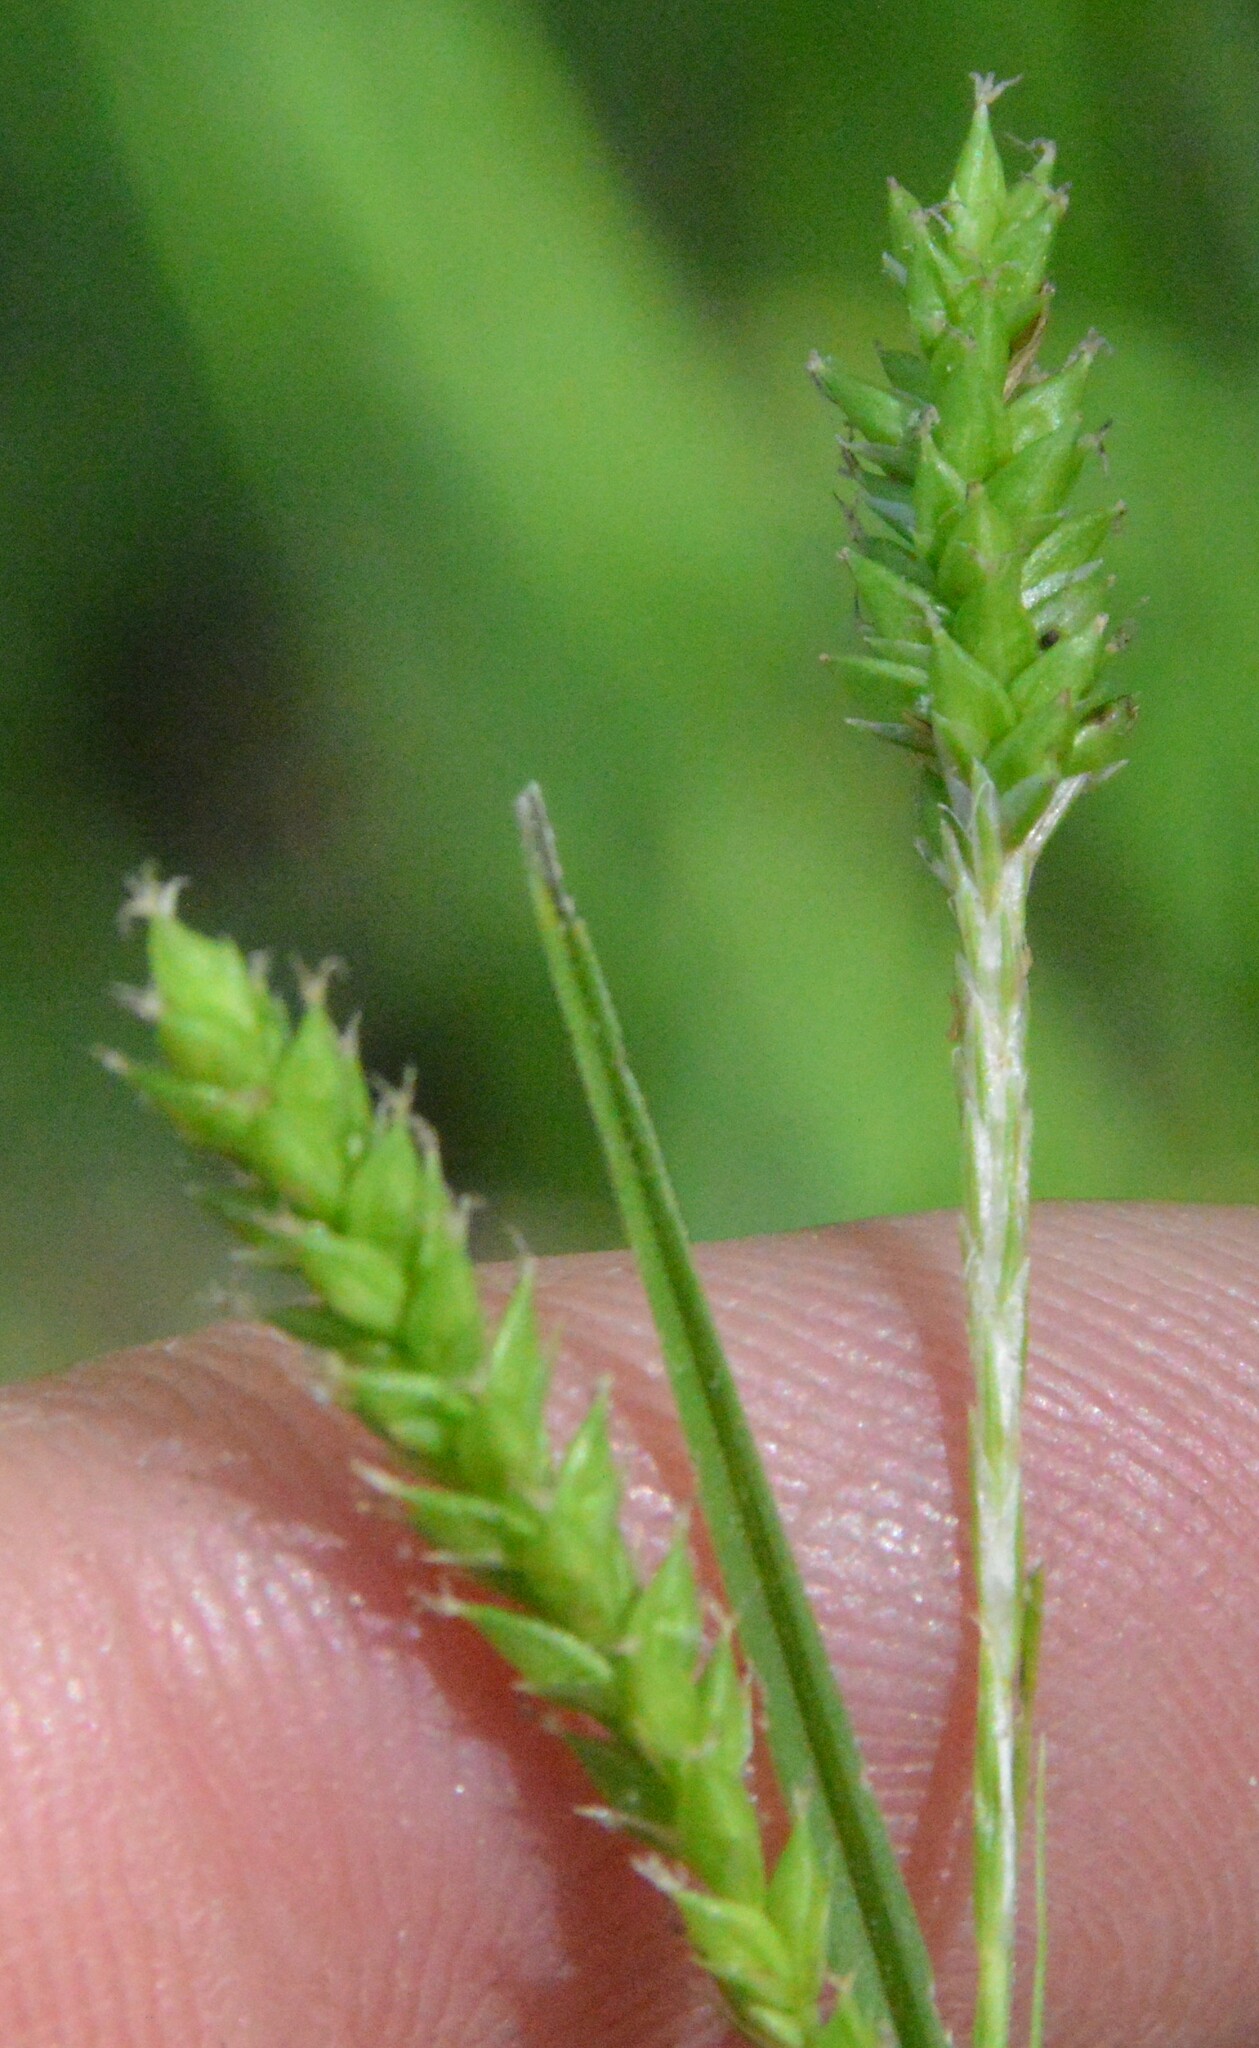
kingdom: Plantae
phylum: Tracheophyta
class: Liliopsida
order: Poales
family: Cyperaceae
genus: Carex
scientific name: Carex oxylepis
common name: Sharpscale sedge
